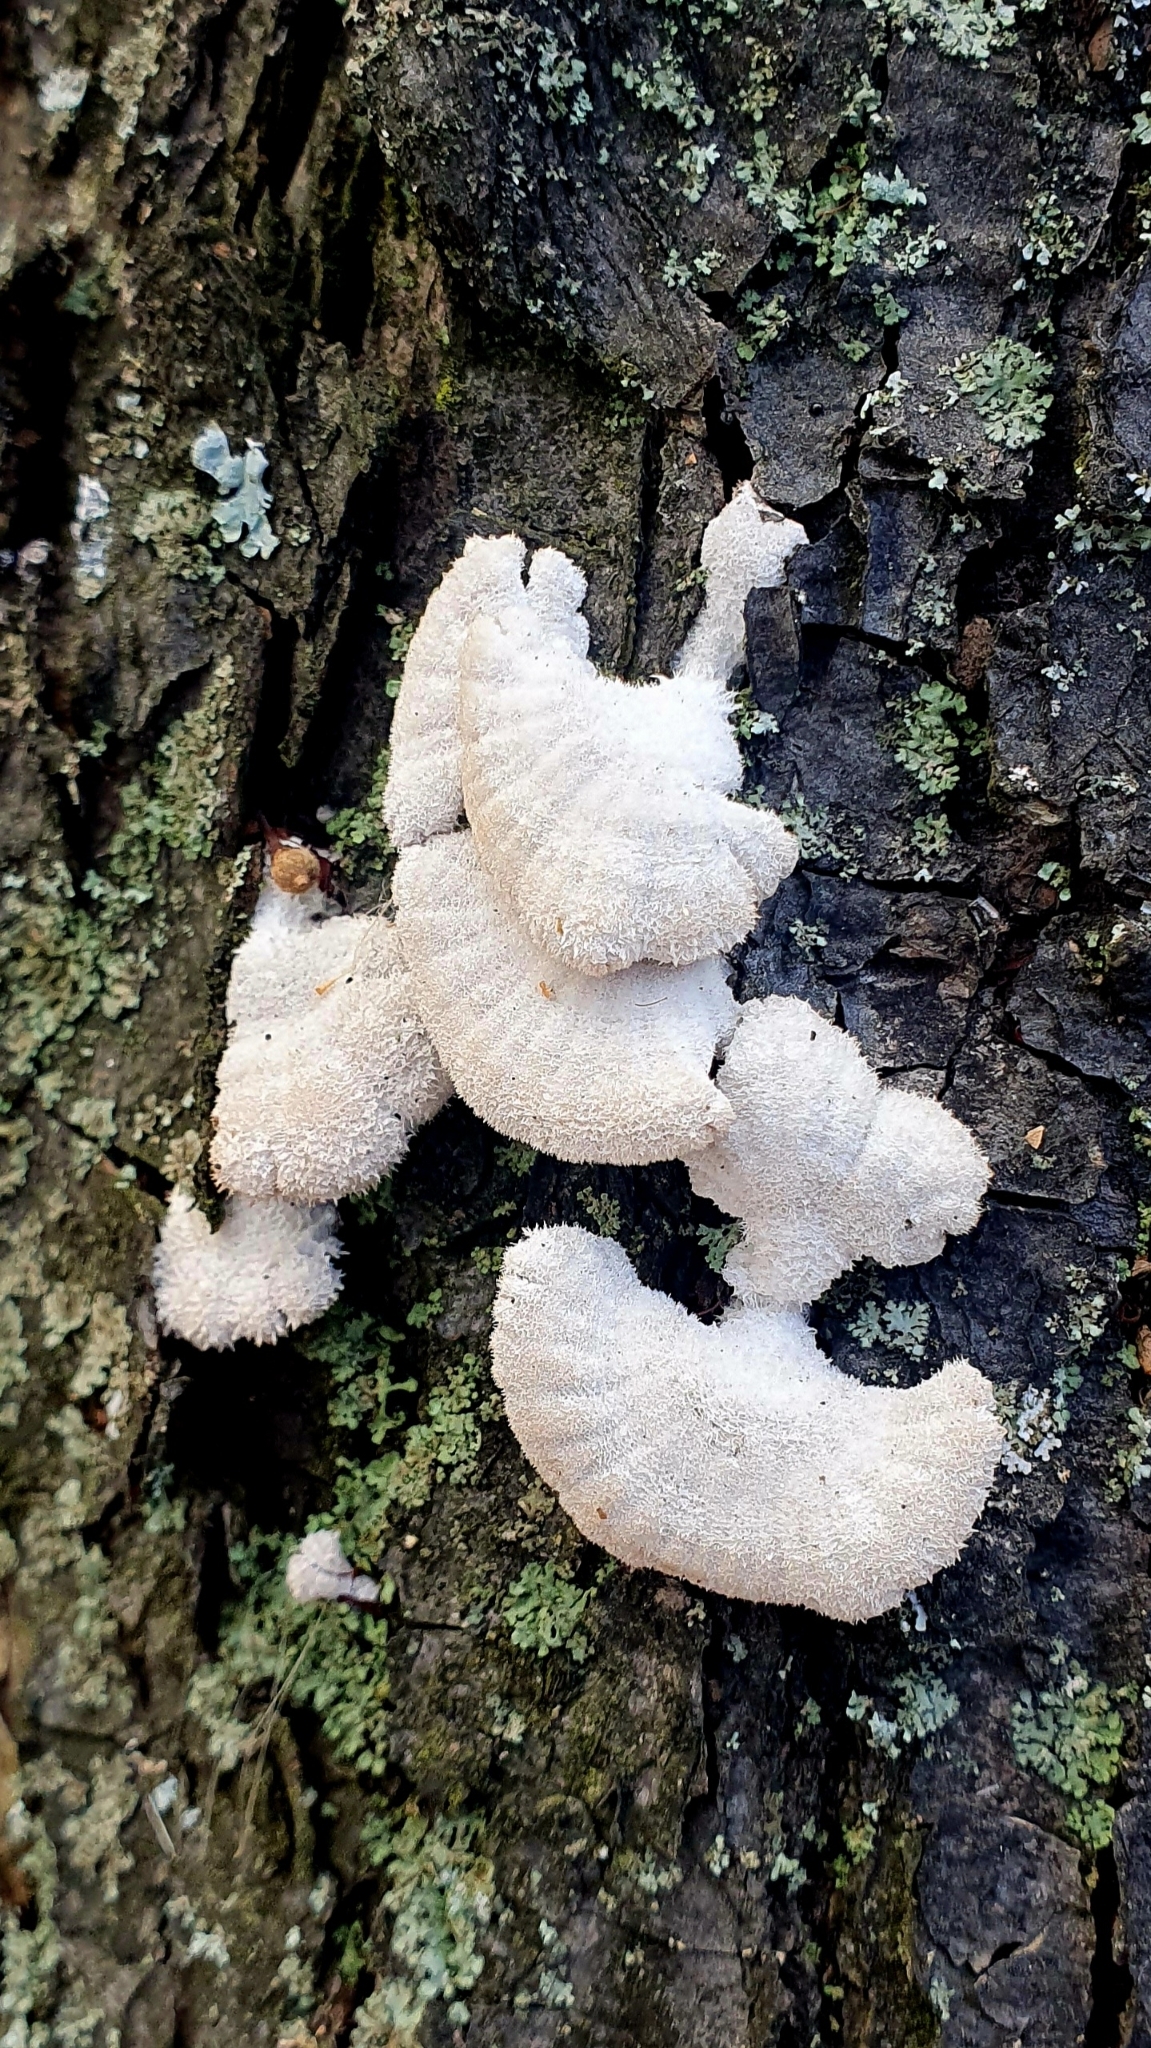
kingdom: Fungi
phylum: Basidiomycota
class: Agaricomycetes
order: Agaricales
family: Schizophyllaceae
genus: Schizophyllum
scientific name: Schizophyllum commune
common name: Common porecrust
